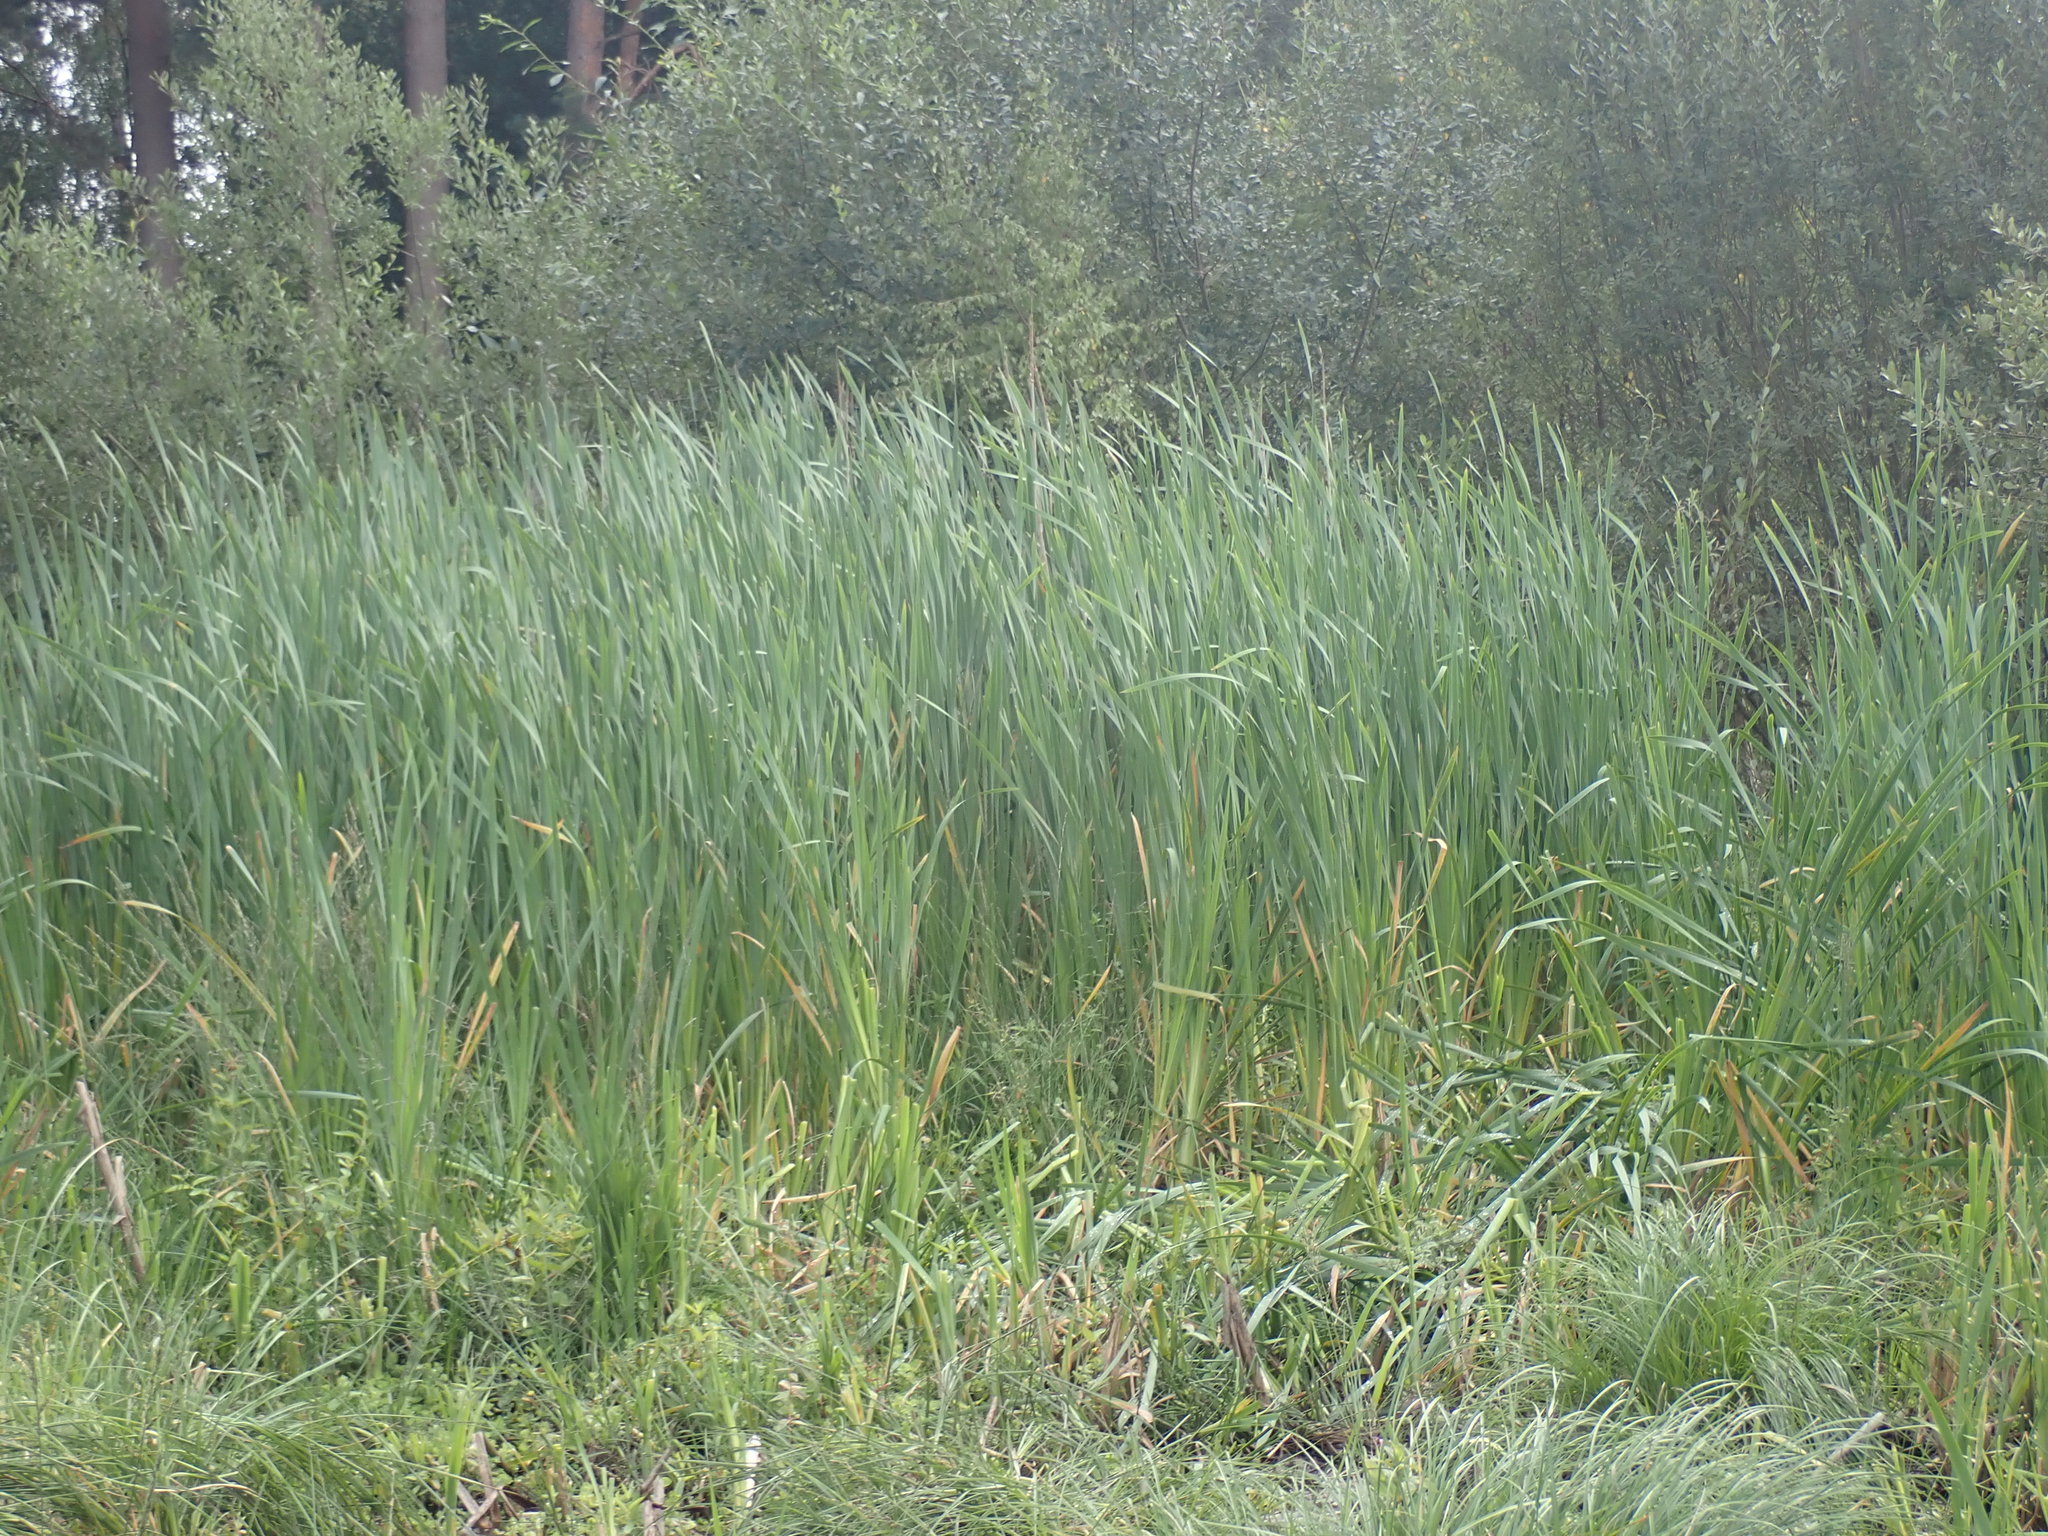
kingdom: Plantae
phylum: Tracheophyta
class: Liliopsida
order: Poales
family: Typhaceae
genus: Typha
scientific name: Typha latifolia
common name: Broadleaf cattail
